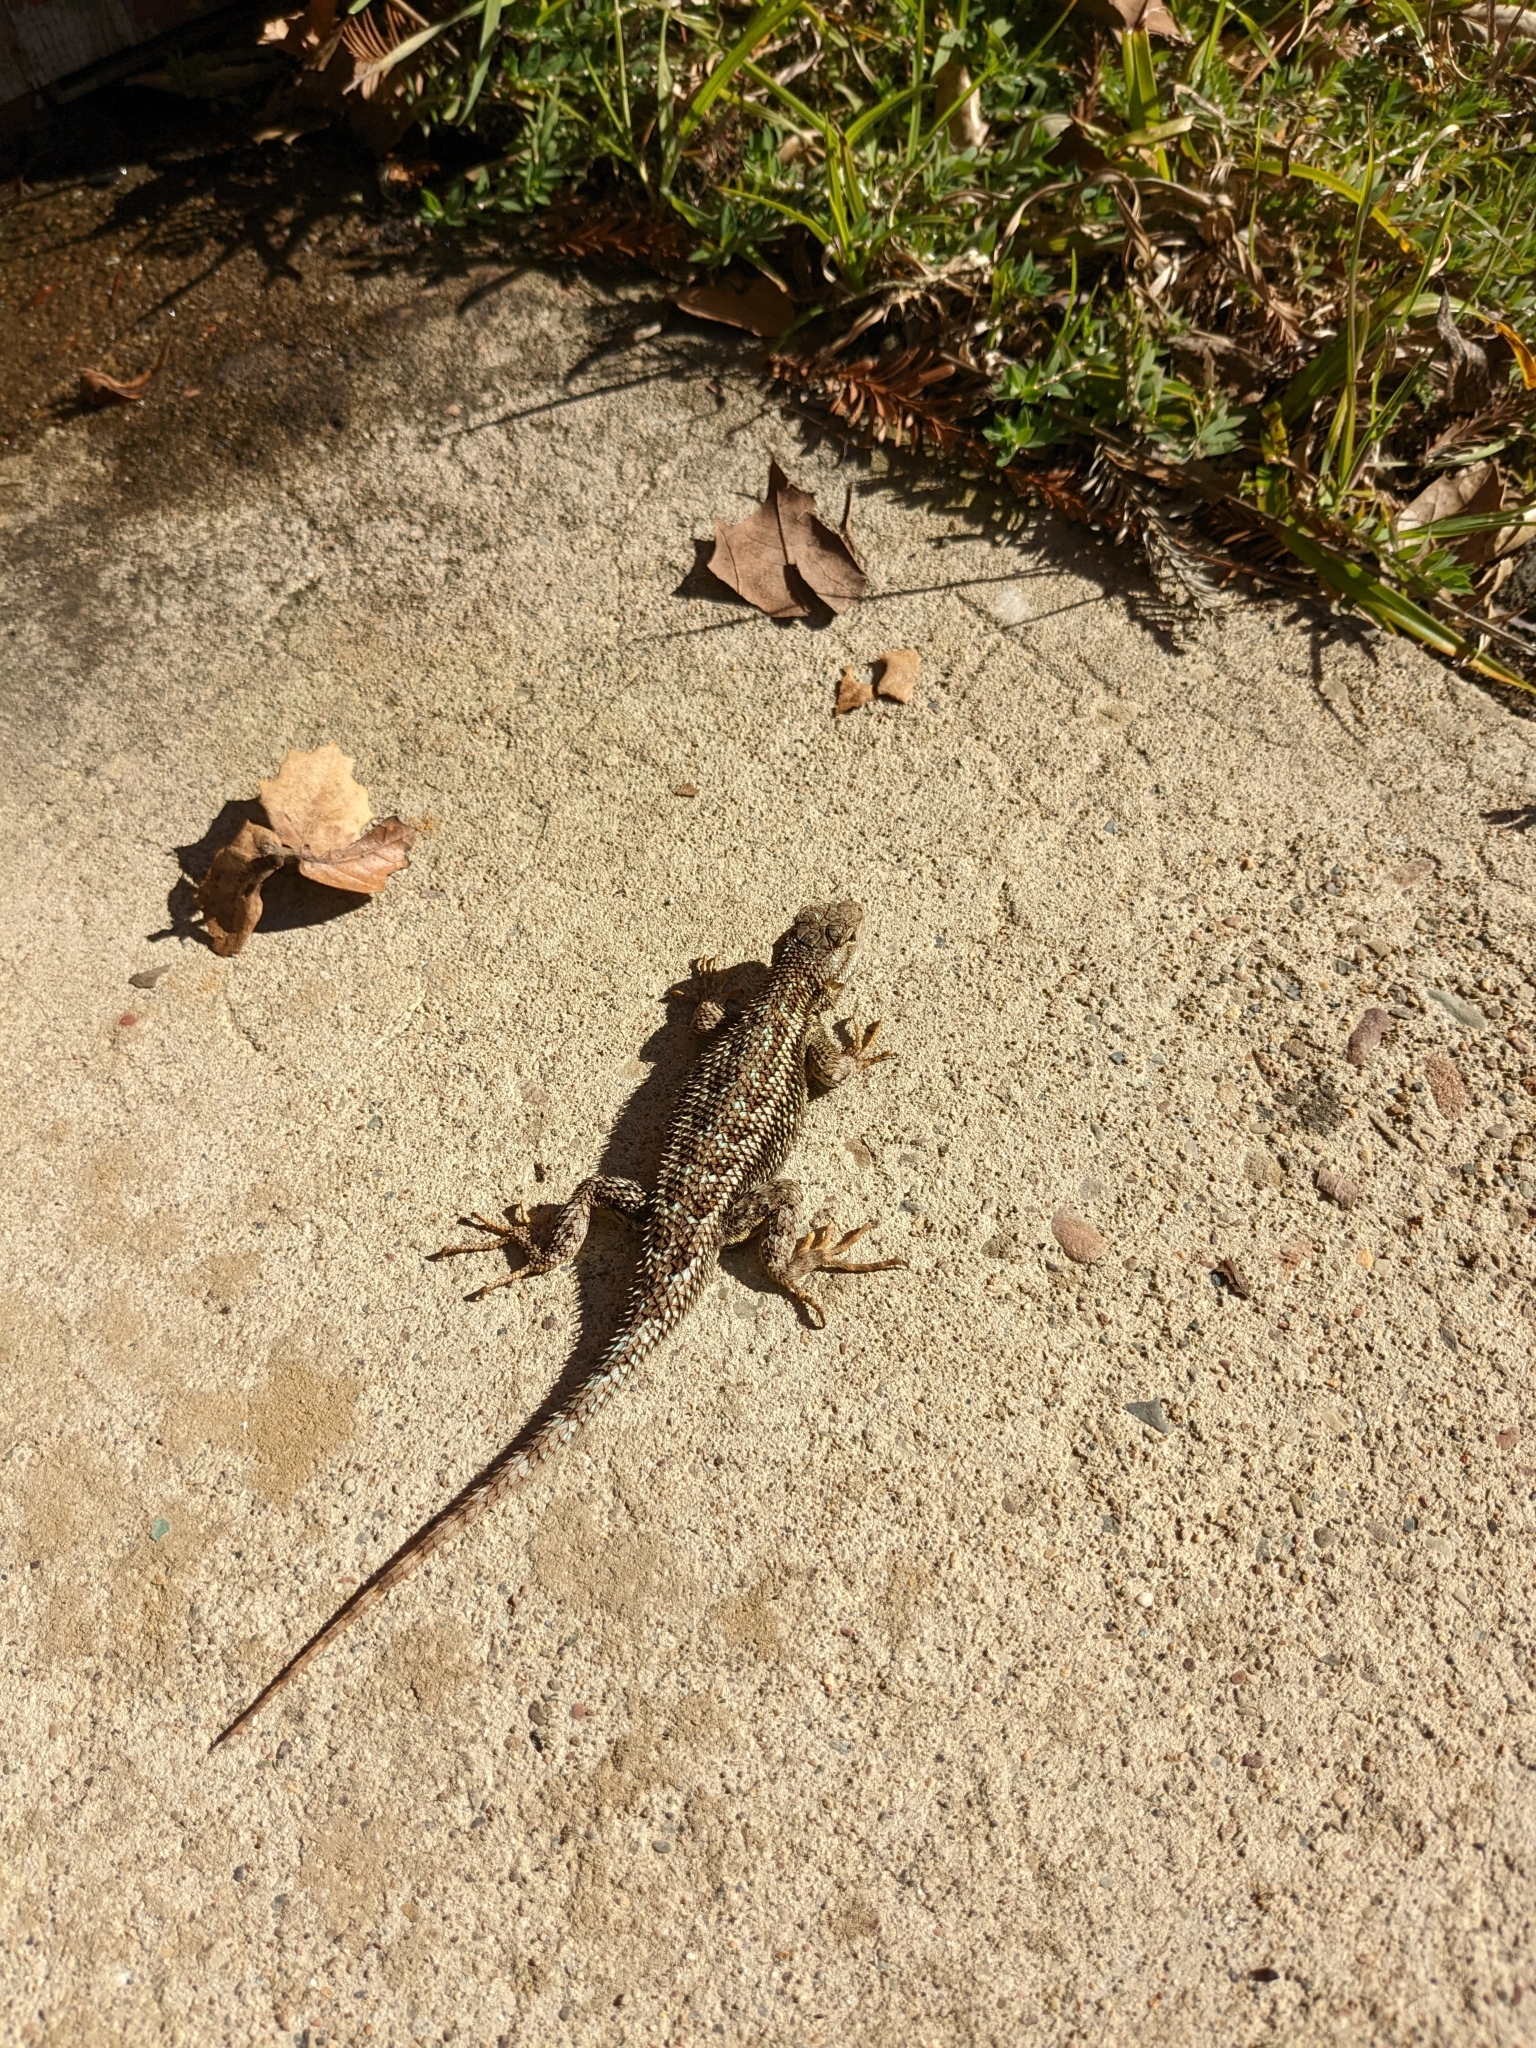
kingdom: Animalia
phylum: Chordata
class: Squamata
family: Phrynosomatidae
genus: Sceloporus
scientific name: Sceloporus occidentalis
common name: Western fence lizard
